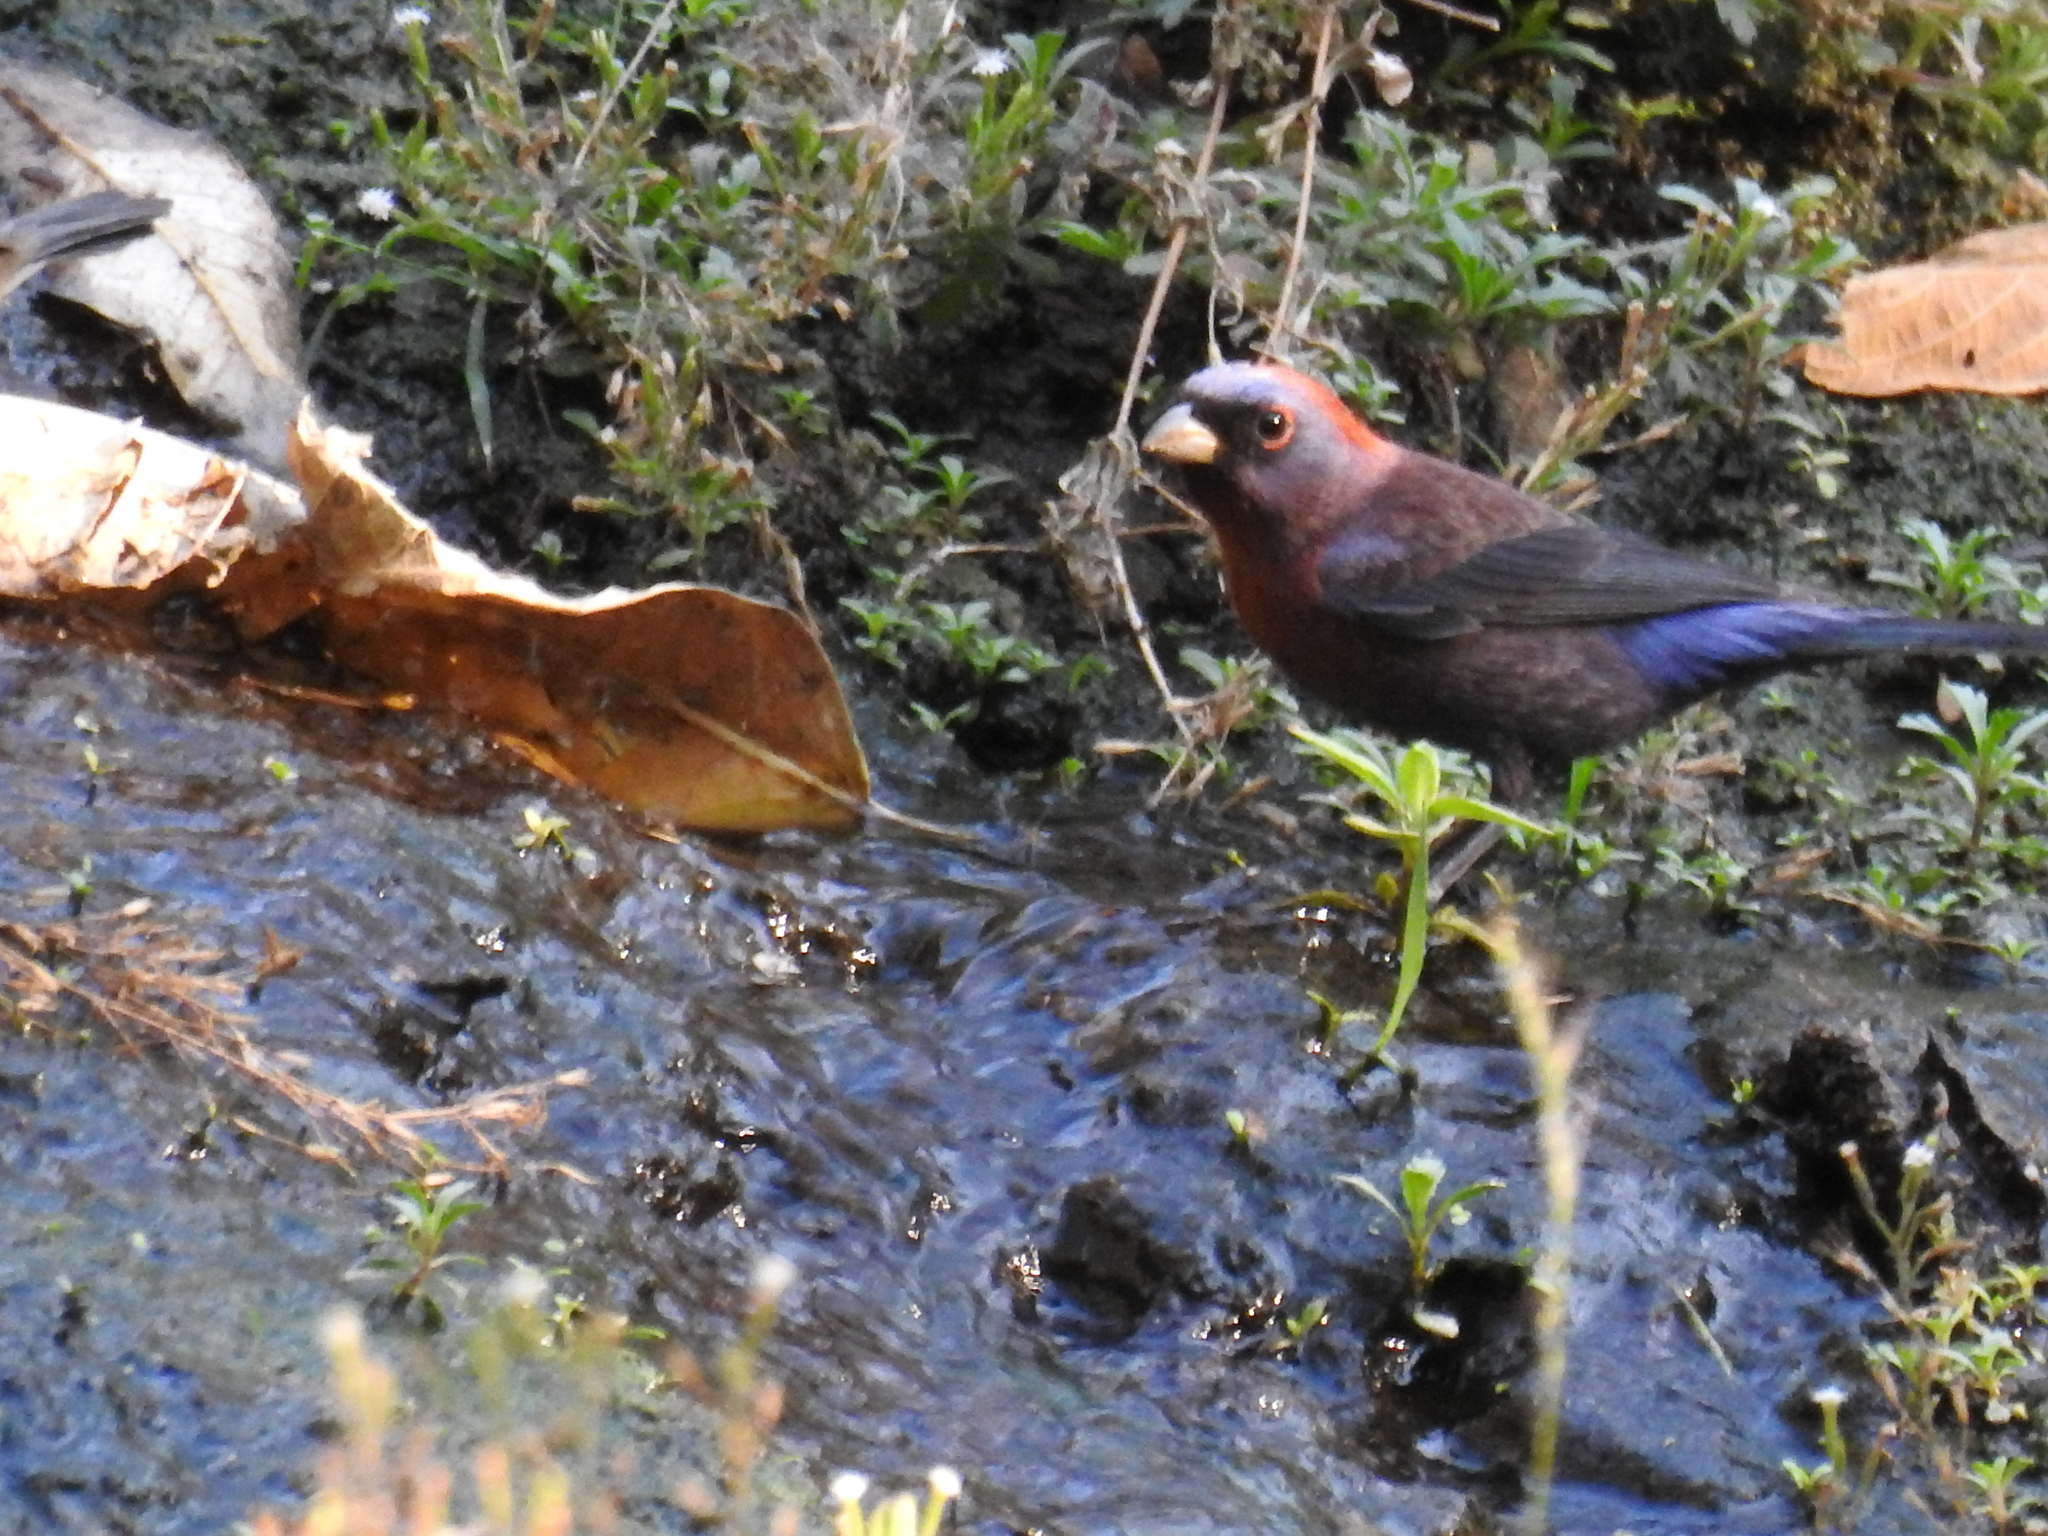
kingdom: Animalia
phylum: Chordata
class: Aves
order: Passeriformes
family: Cardinalidae
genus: Passerina
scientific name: Passerina versicolor
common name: Varied bunting
